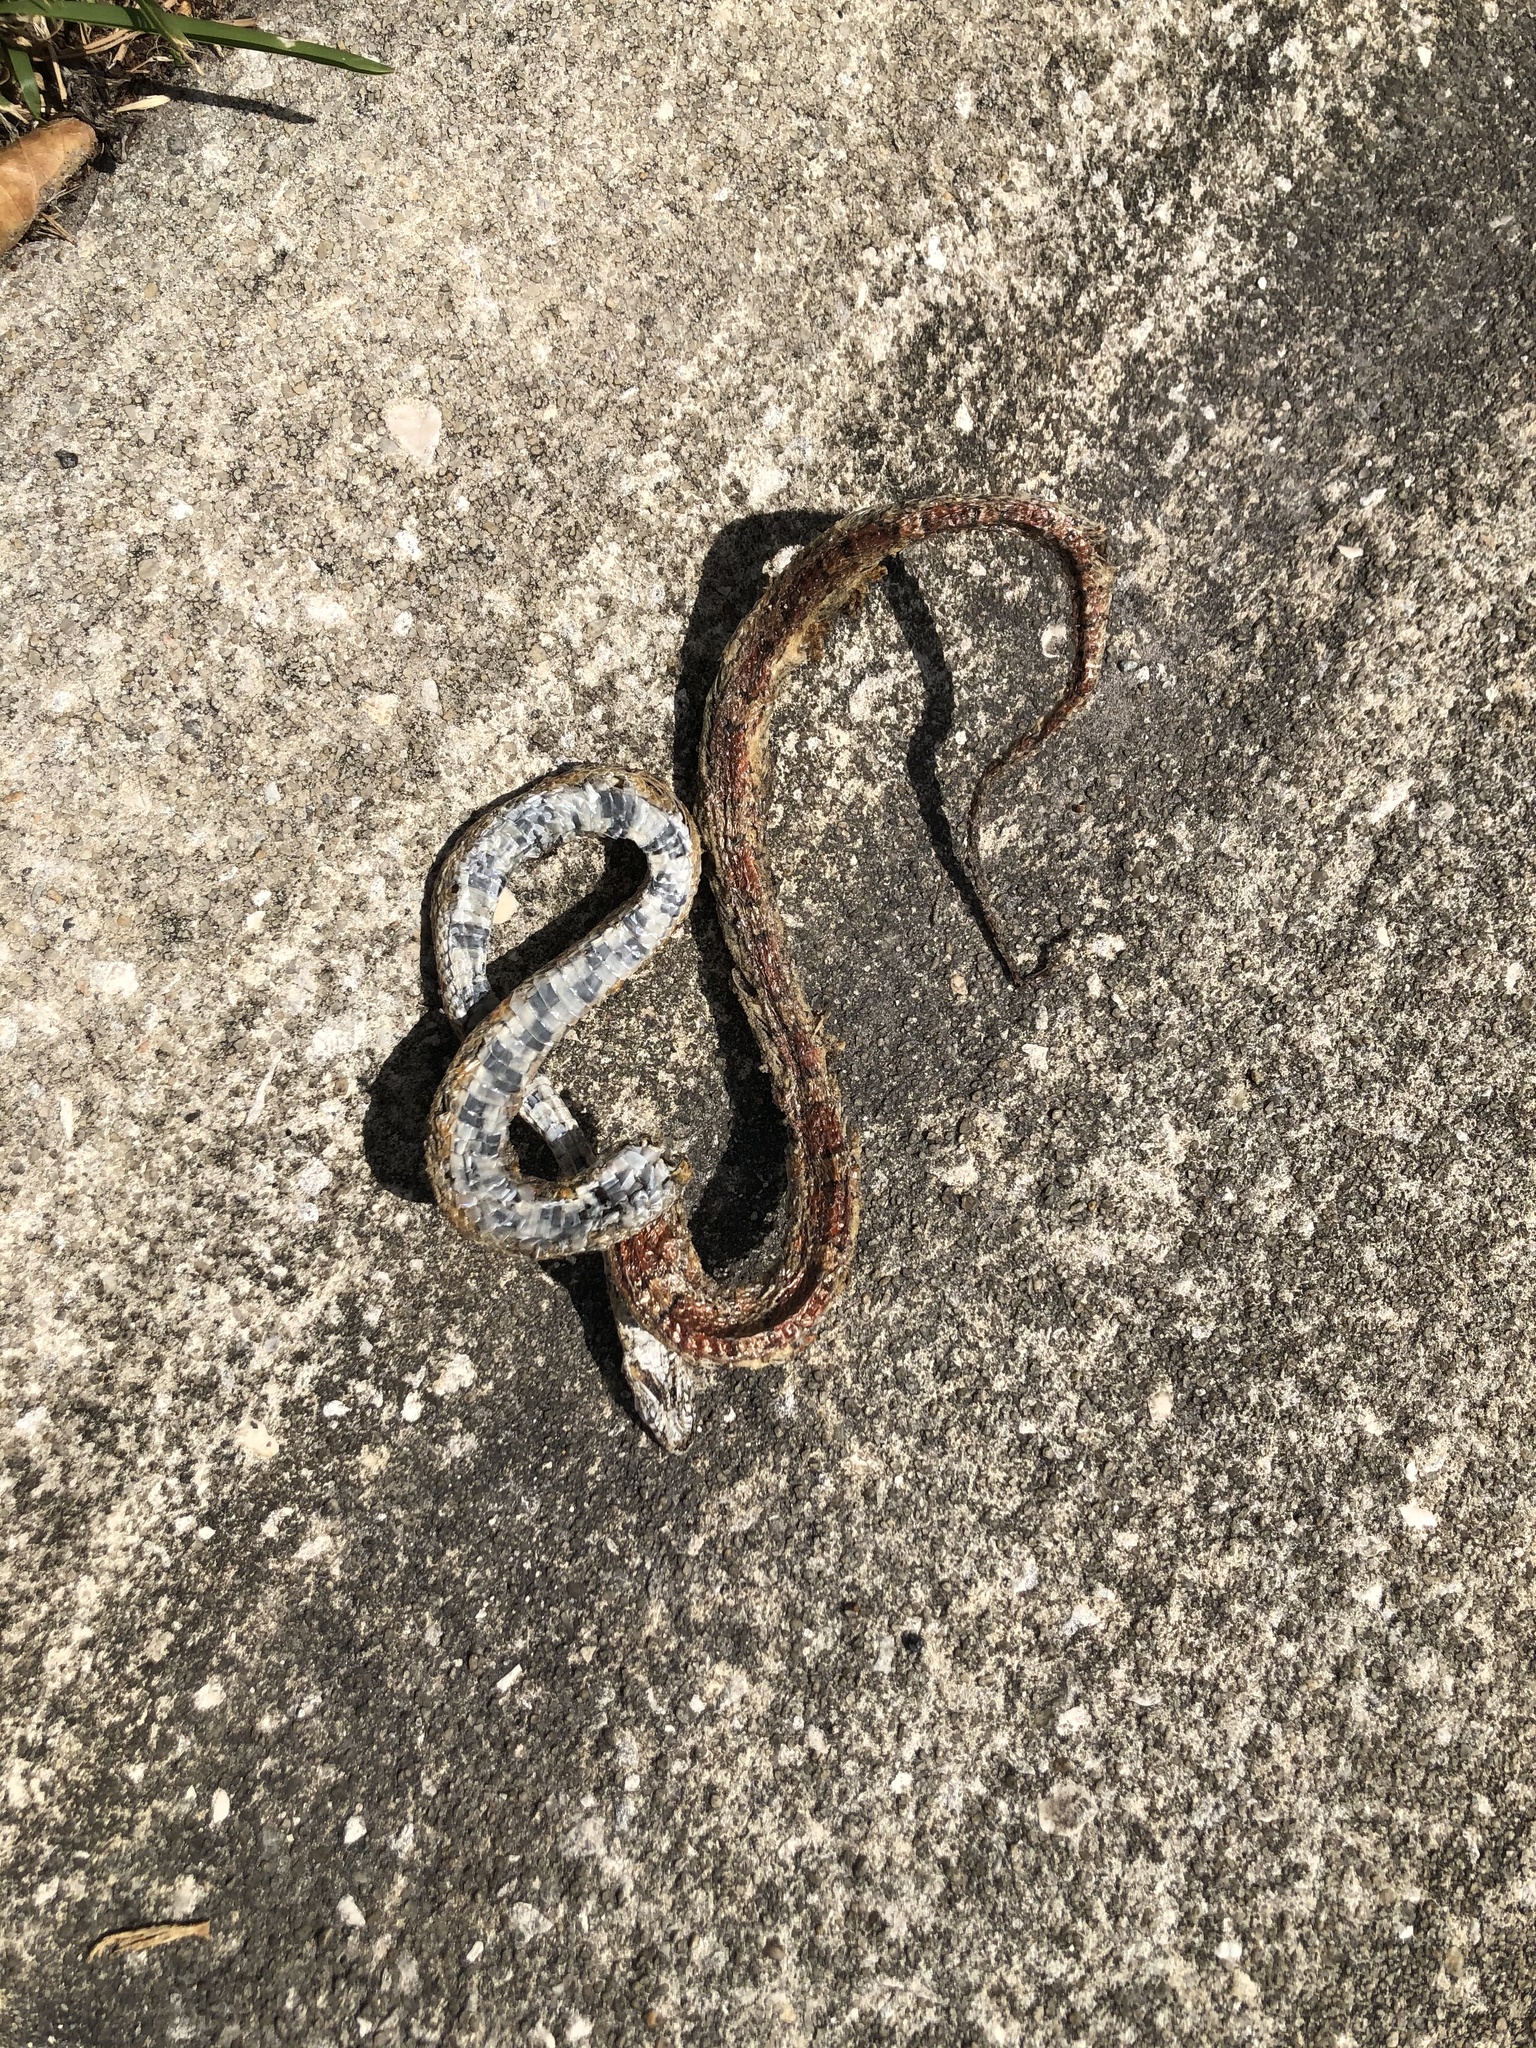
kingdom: Animalia
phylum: Chordata
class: Squamata
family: Colubridae
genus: Pantherophis
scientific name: Pantherophis guttatus
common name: Red cornsnake
